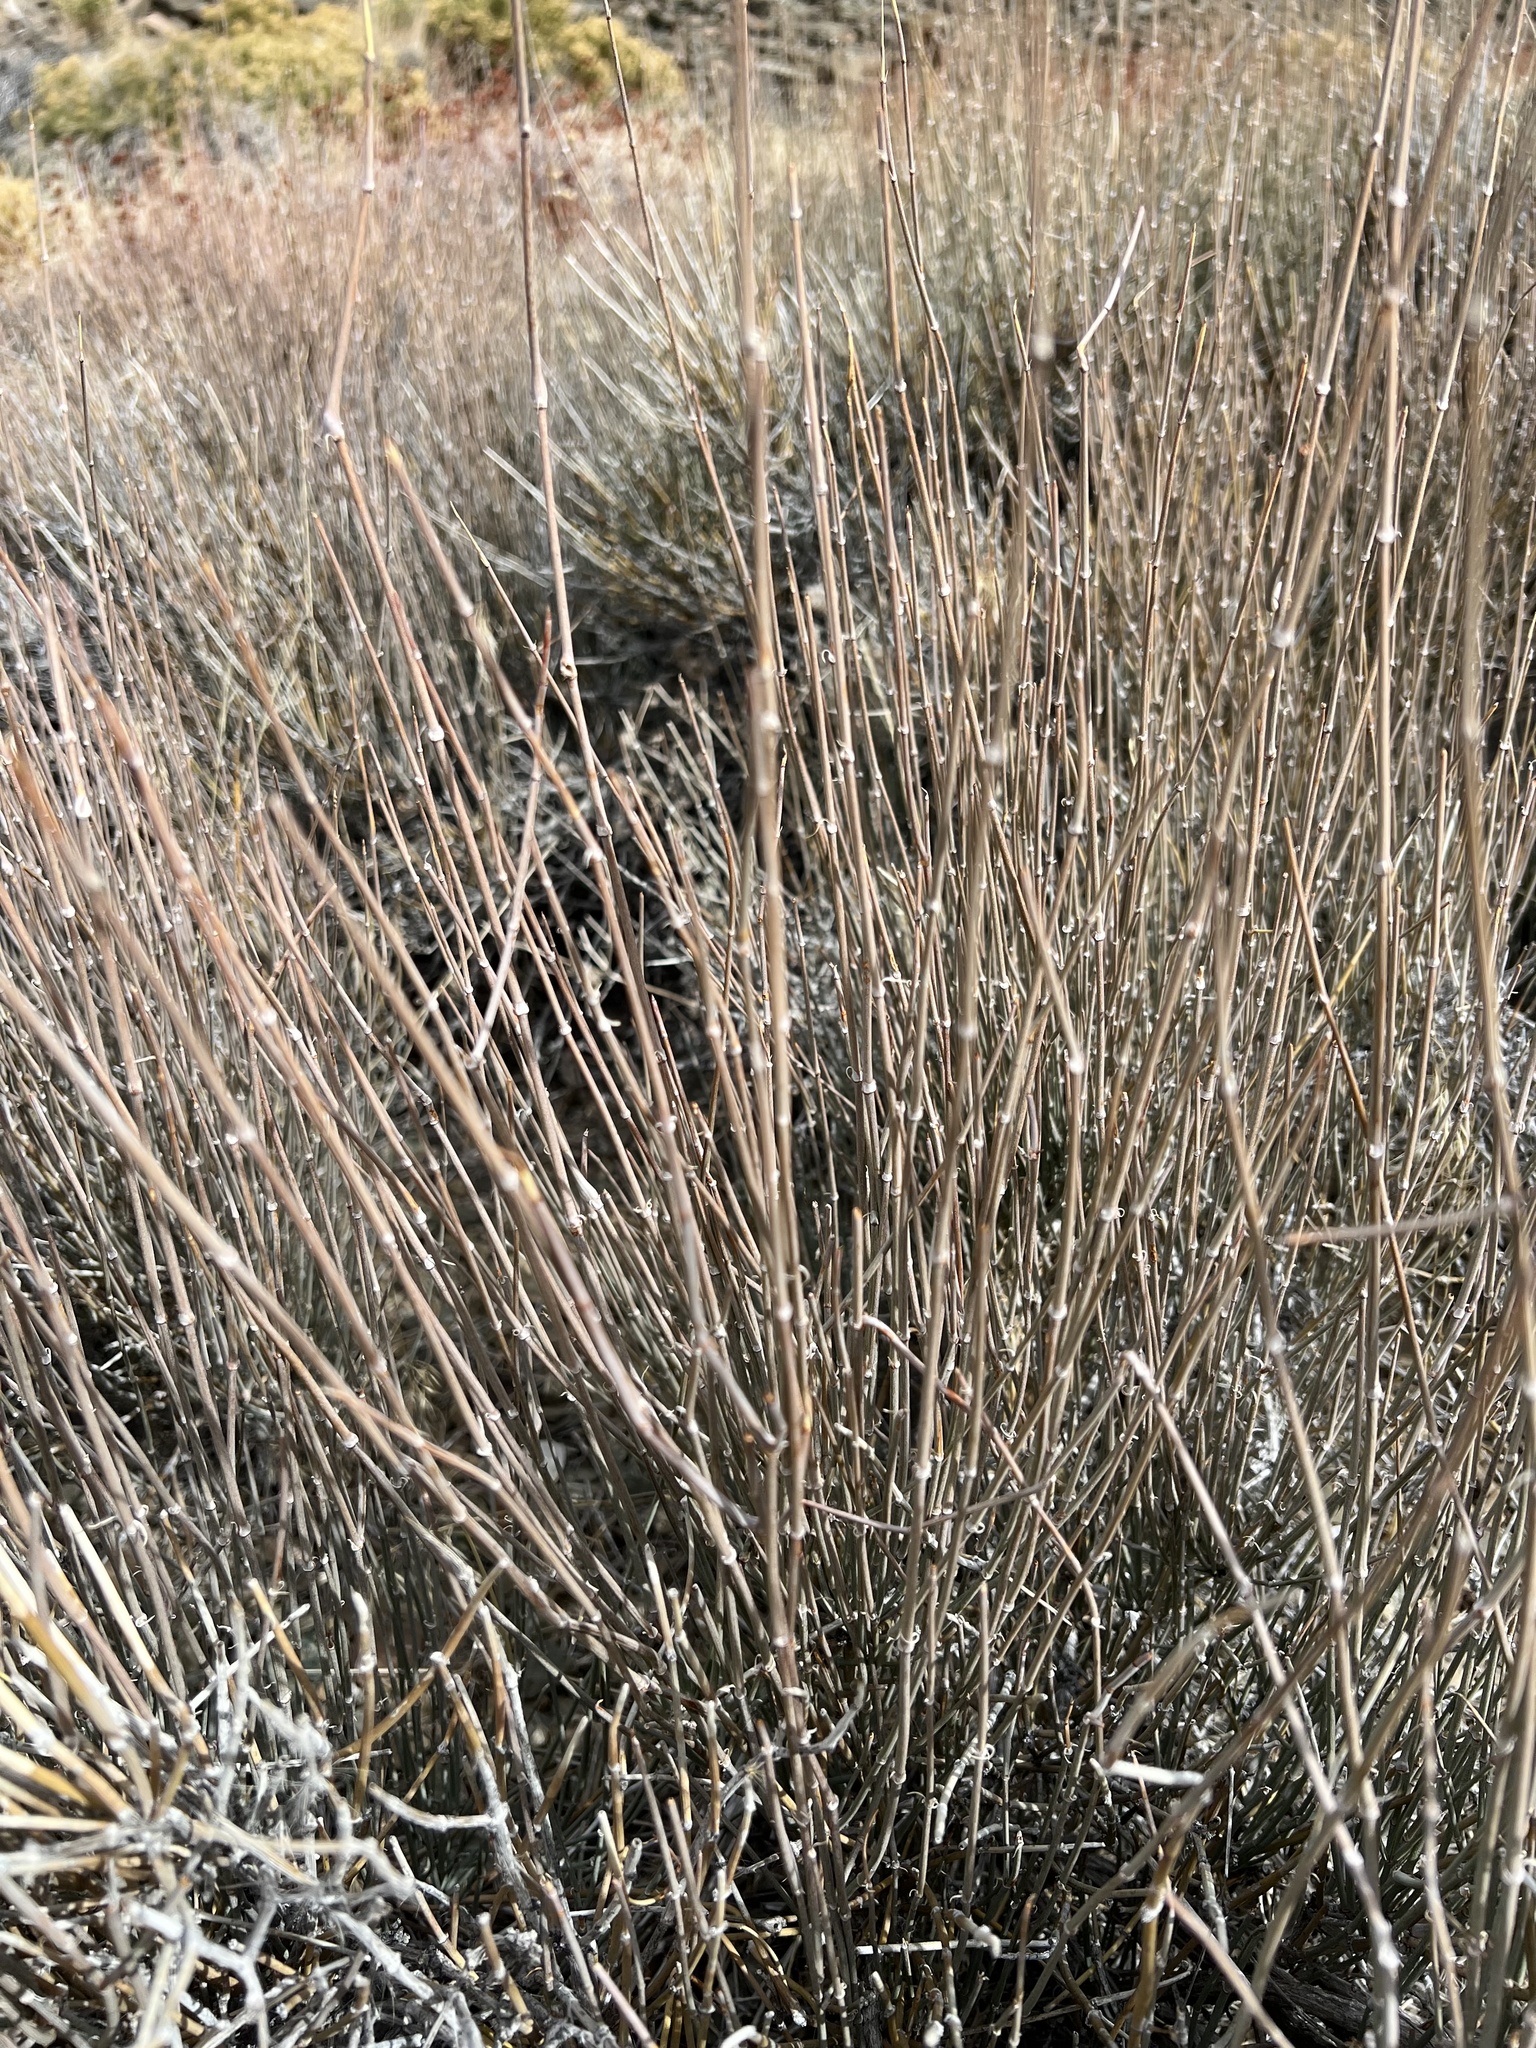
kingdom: Plantae
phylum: Tracheophyta
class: Gnetopsida
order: Ephedrales
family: Ephedraceae
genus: Ephedra
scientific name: Ephedra nevadensis
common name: Gray ephedra
